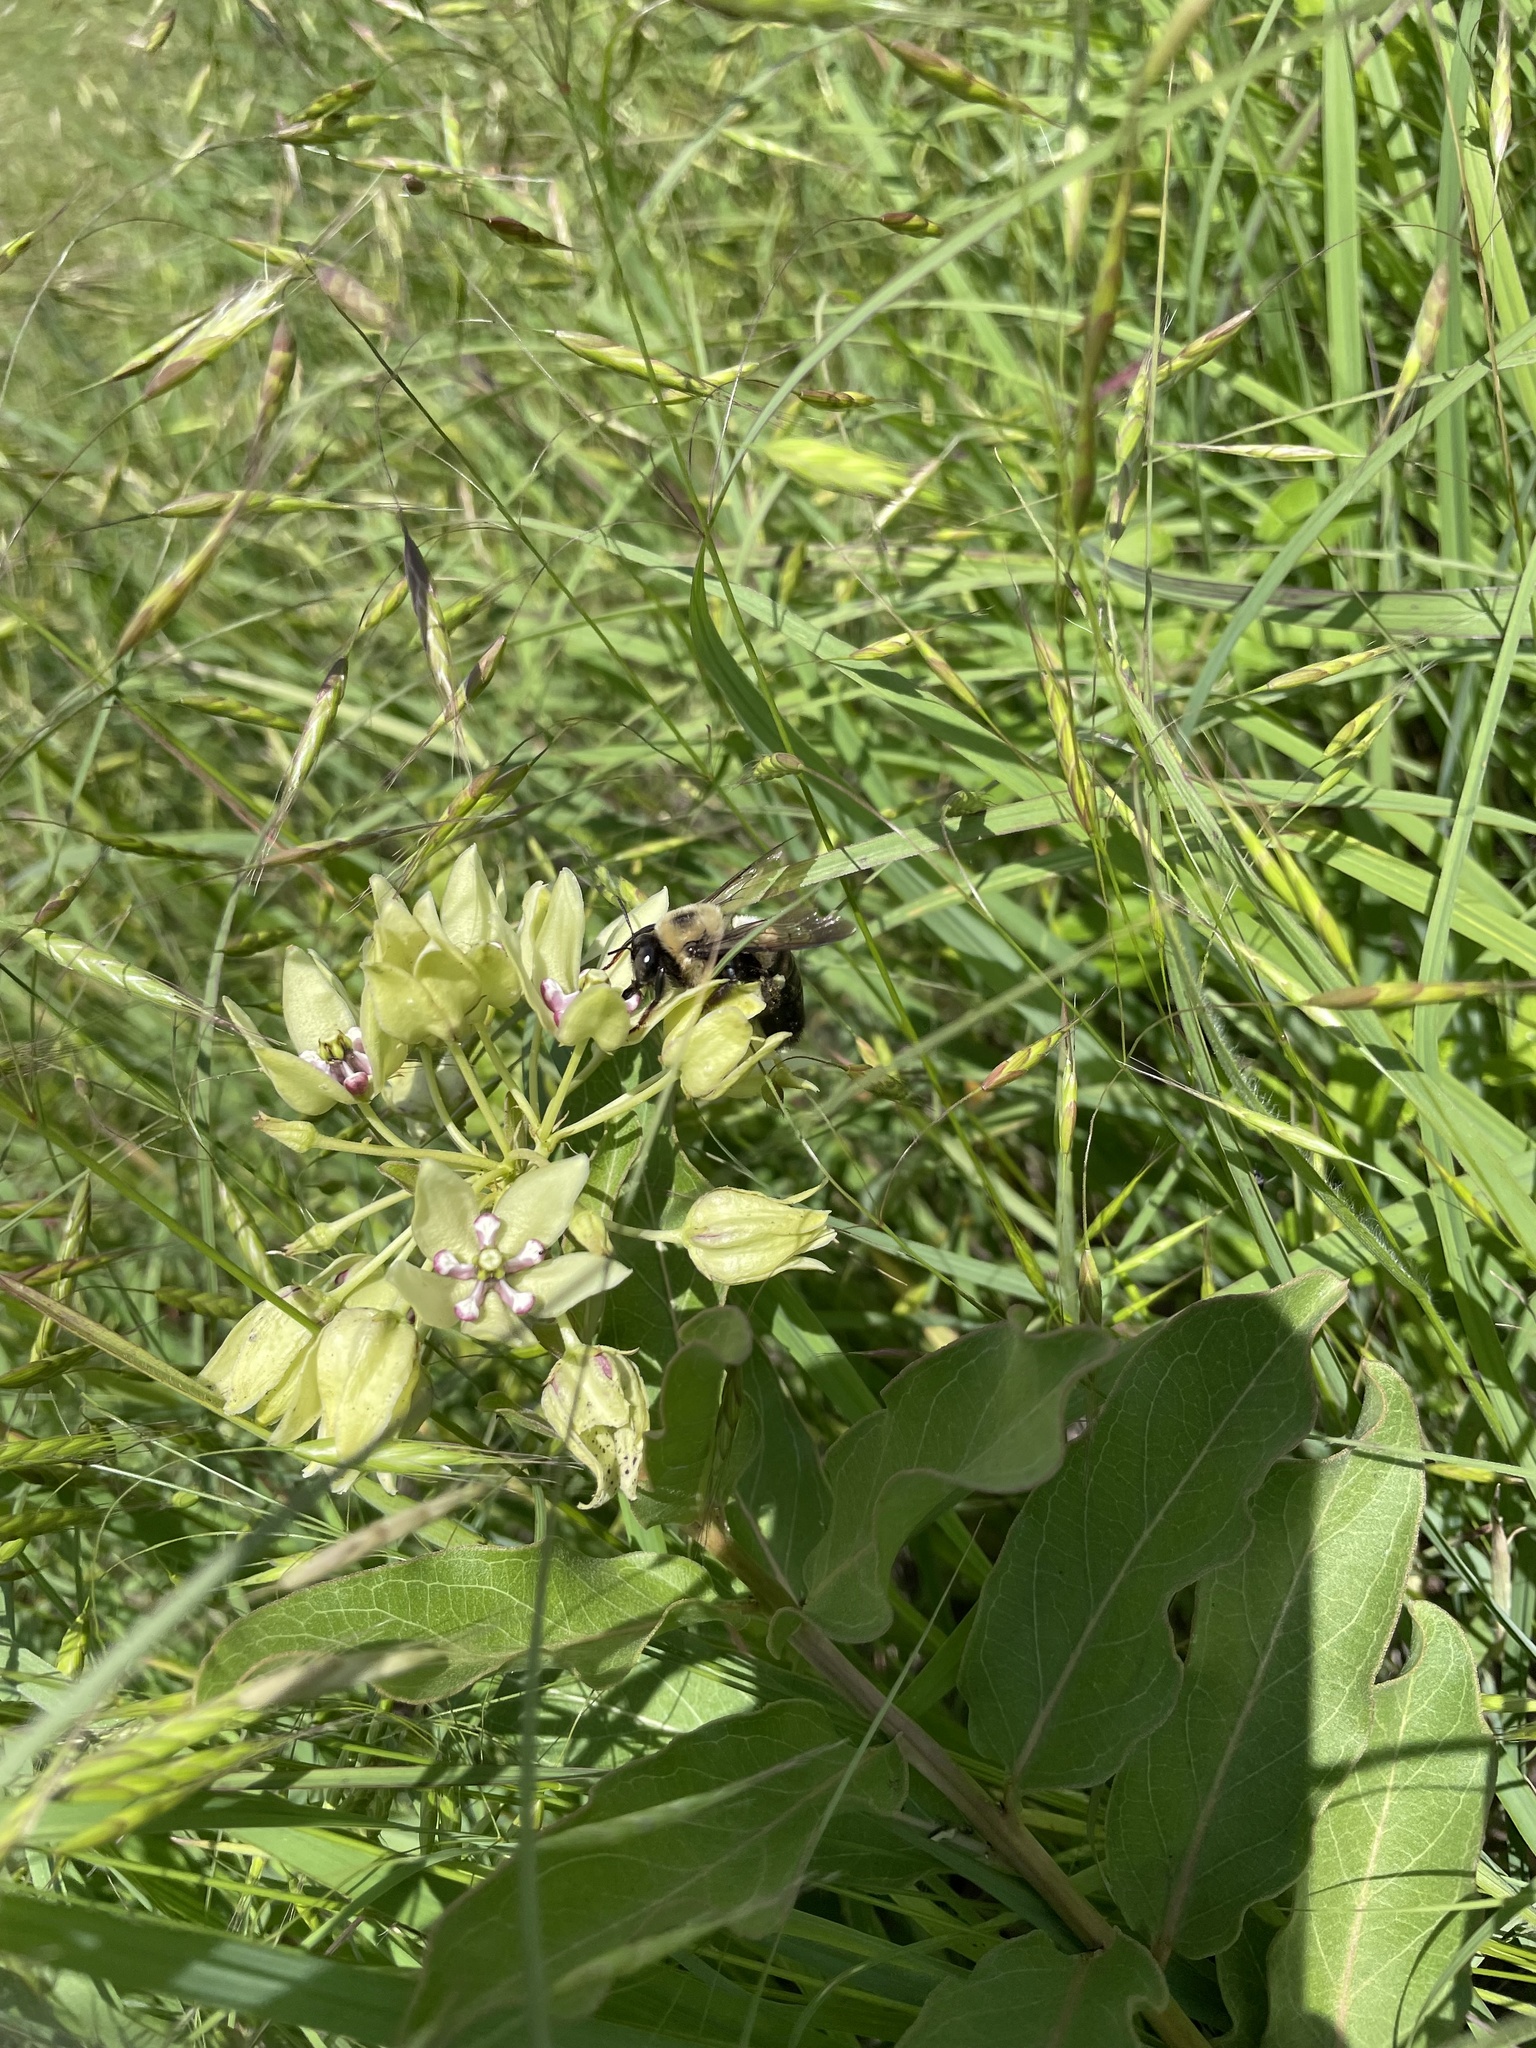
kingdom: Animalia
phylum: Arthropoda
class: Insecta
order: Hymenoptera
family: Apidae
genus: Xylocopa
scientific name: Xylocopa virginica
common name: Carpenter bee
